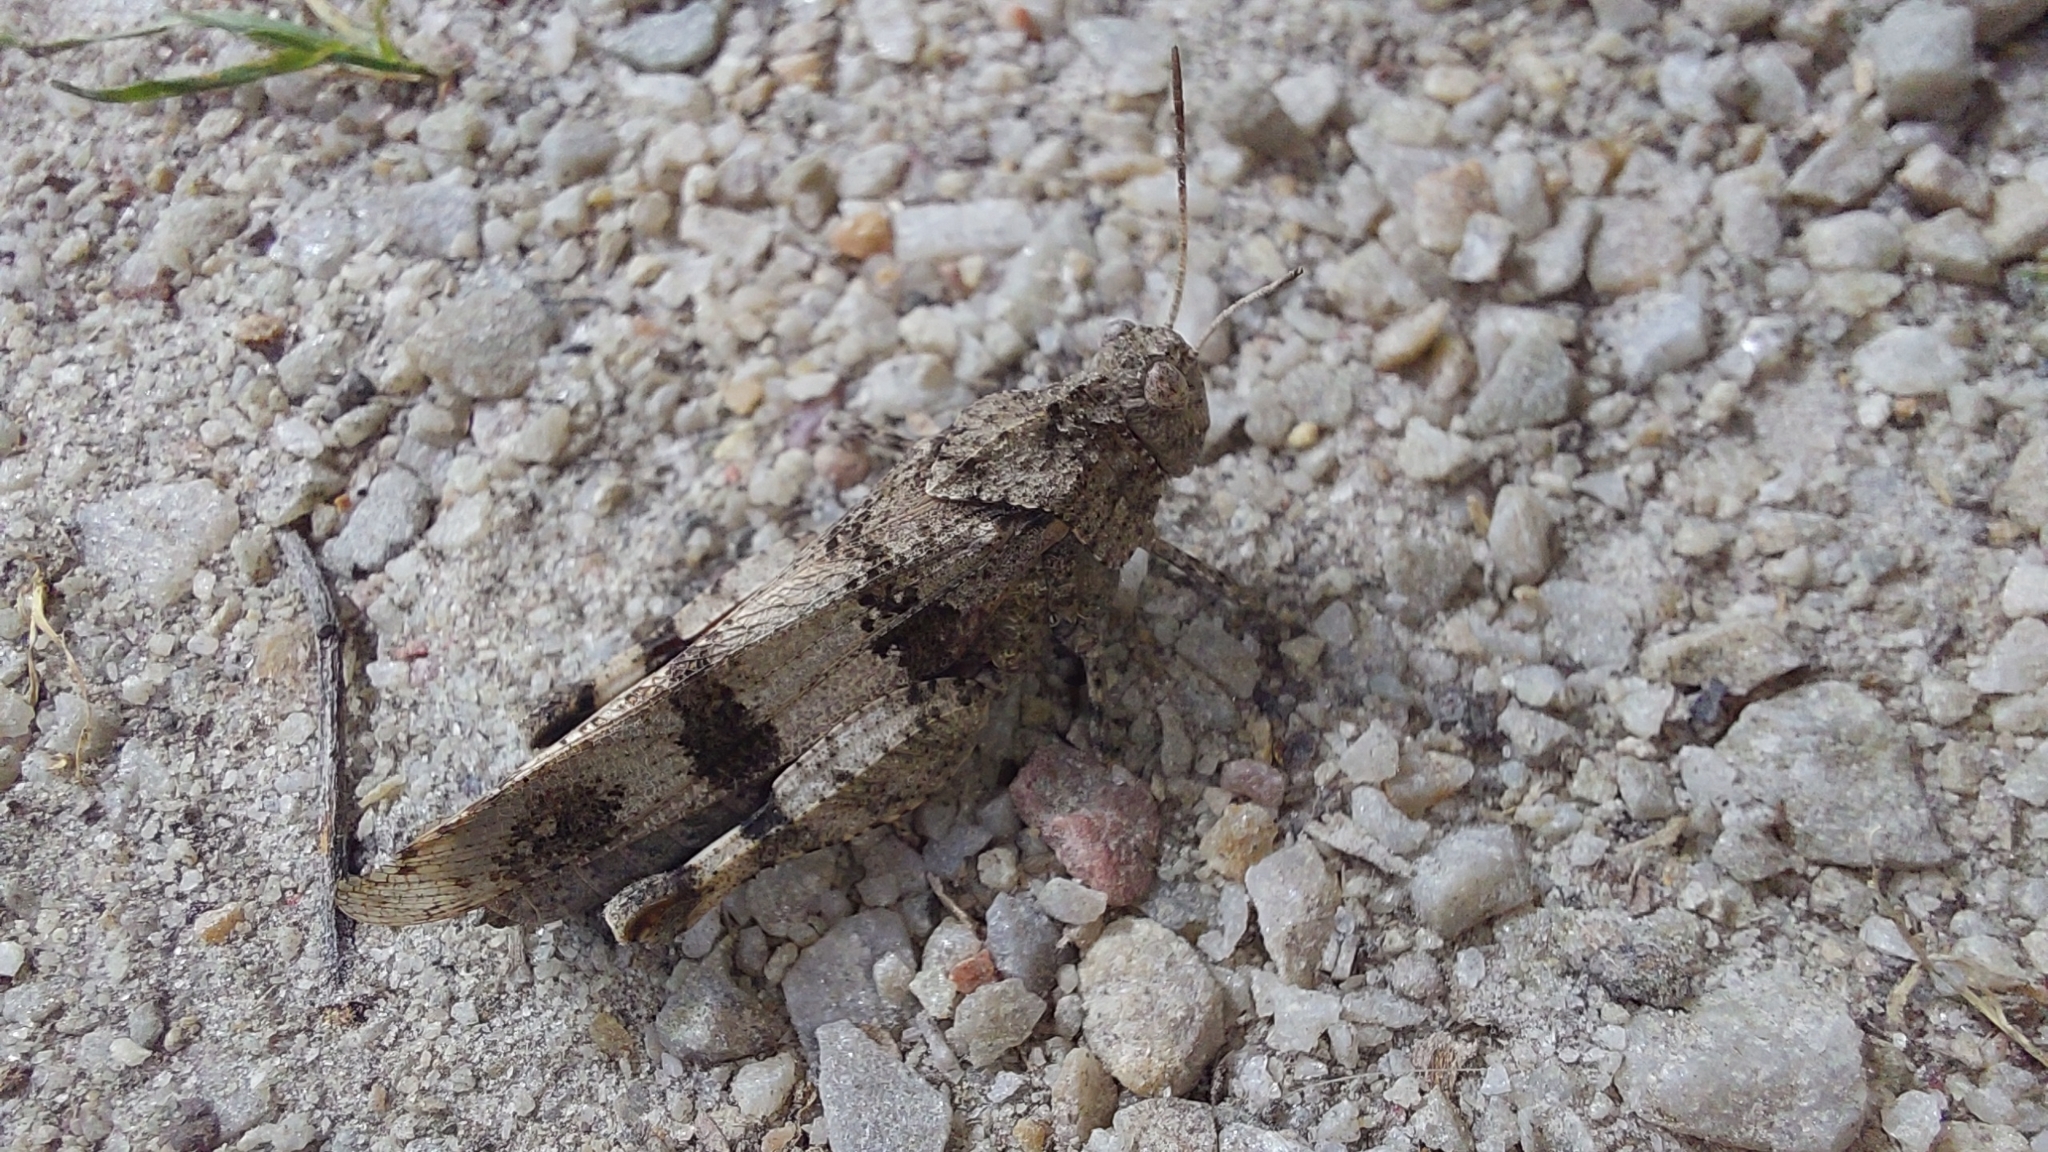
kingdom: Animalia
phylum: Arthropoda
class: Insecta
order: Orthoptera
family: Acrididae
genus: Oedipoda
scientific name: Oedipoda caerulescens
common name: Blue-winged grasshopper
